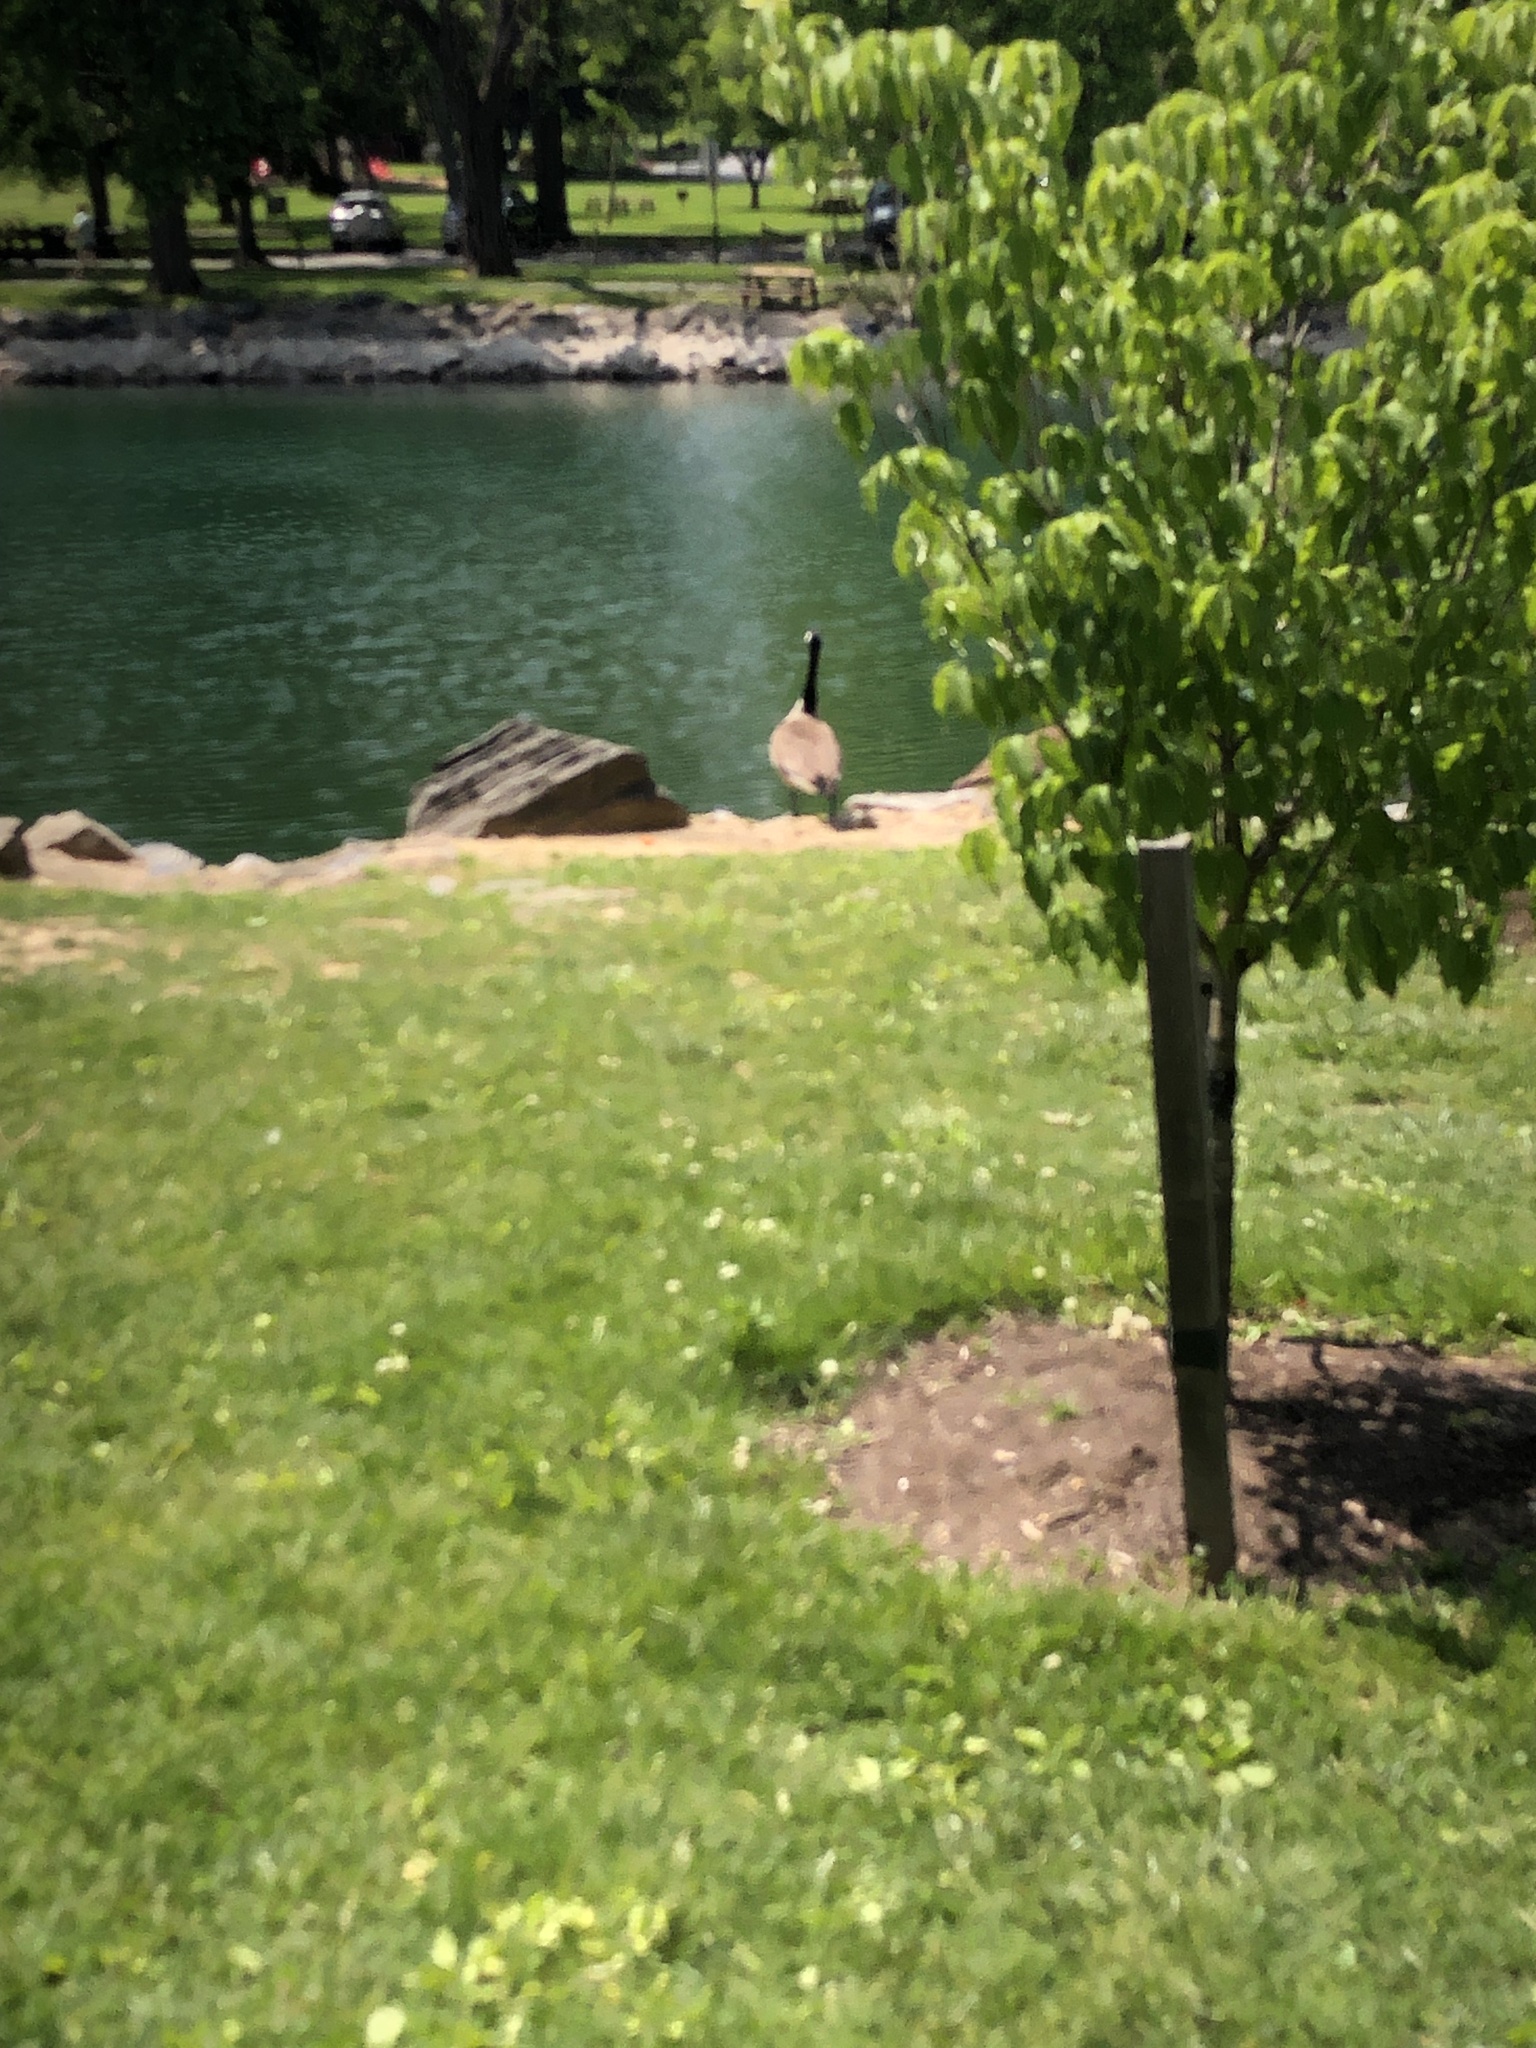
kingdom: Animalia
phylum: Chordata
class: Aves
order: Anseriformes
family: Anatidae
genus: Branta
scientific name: Branta canadensis
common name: Canada goose
